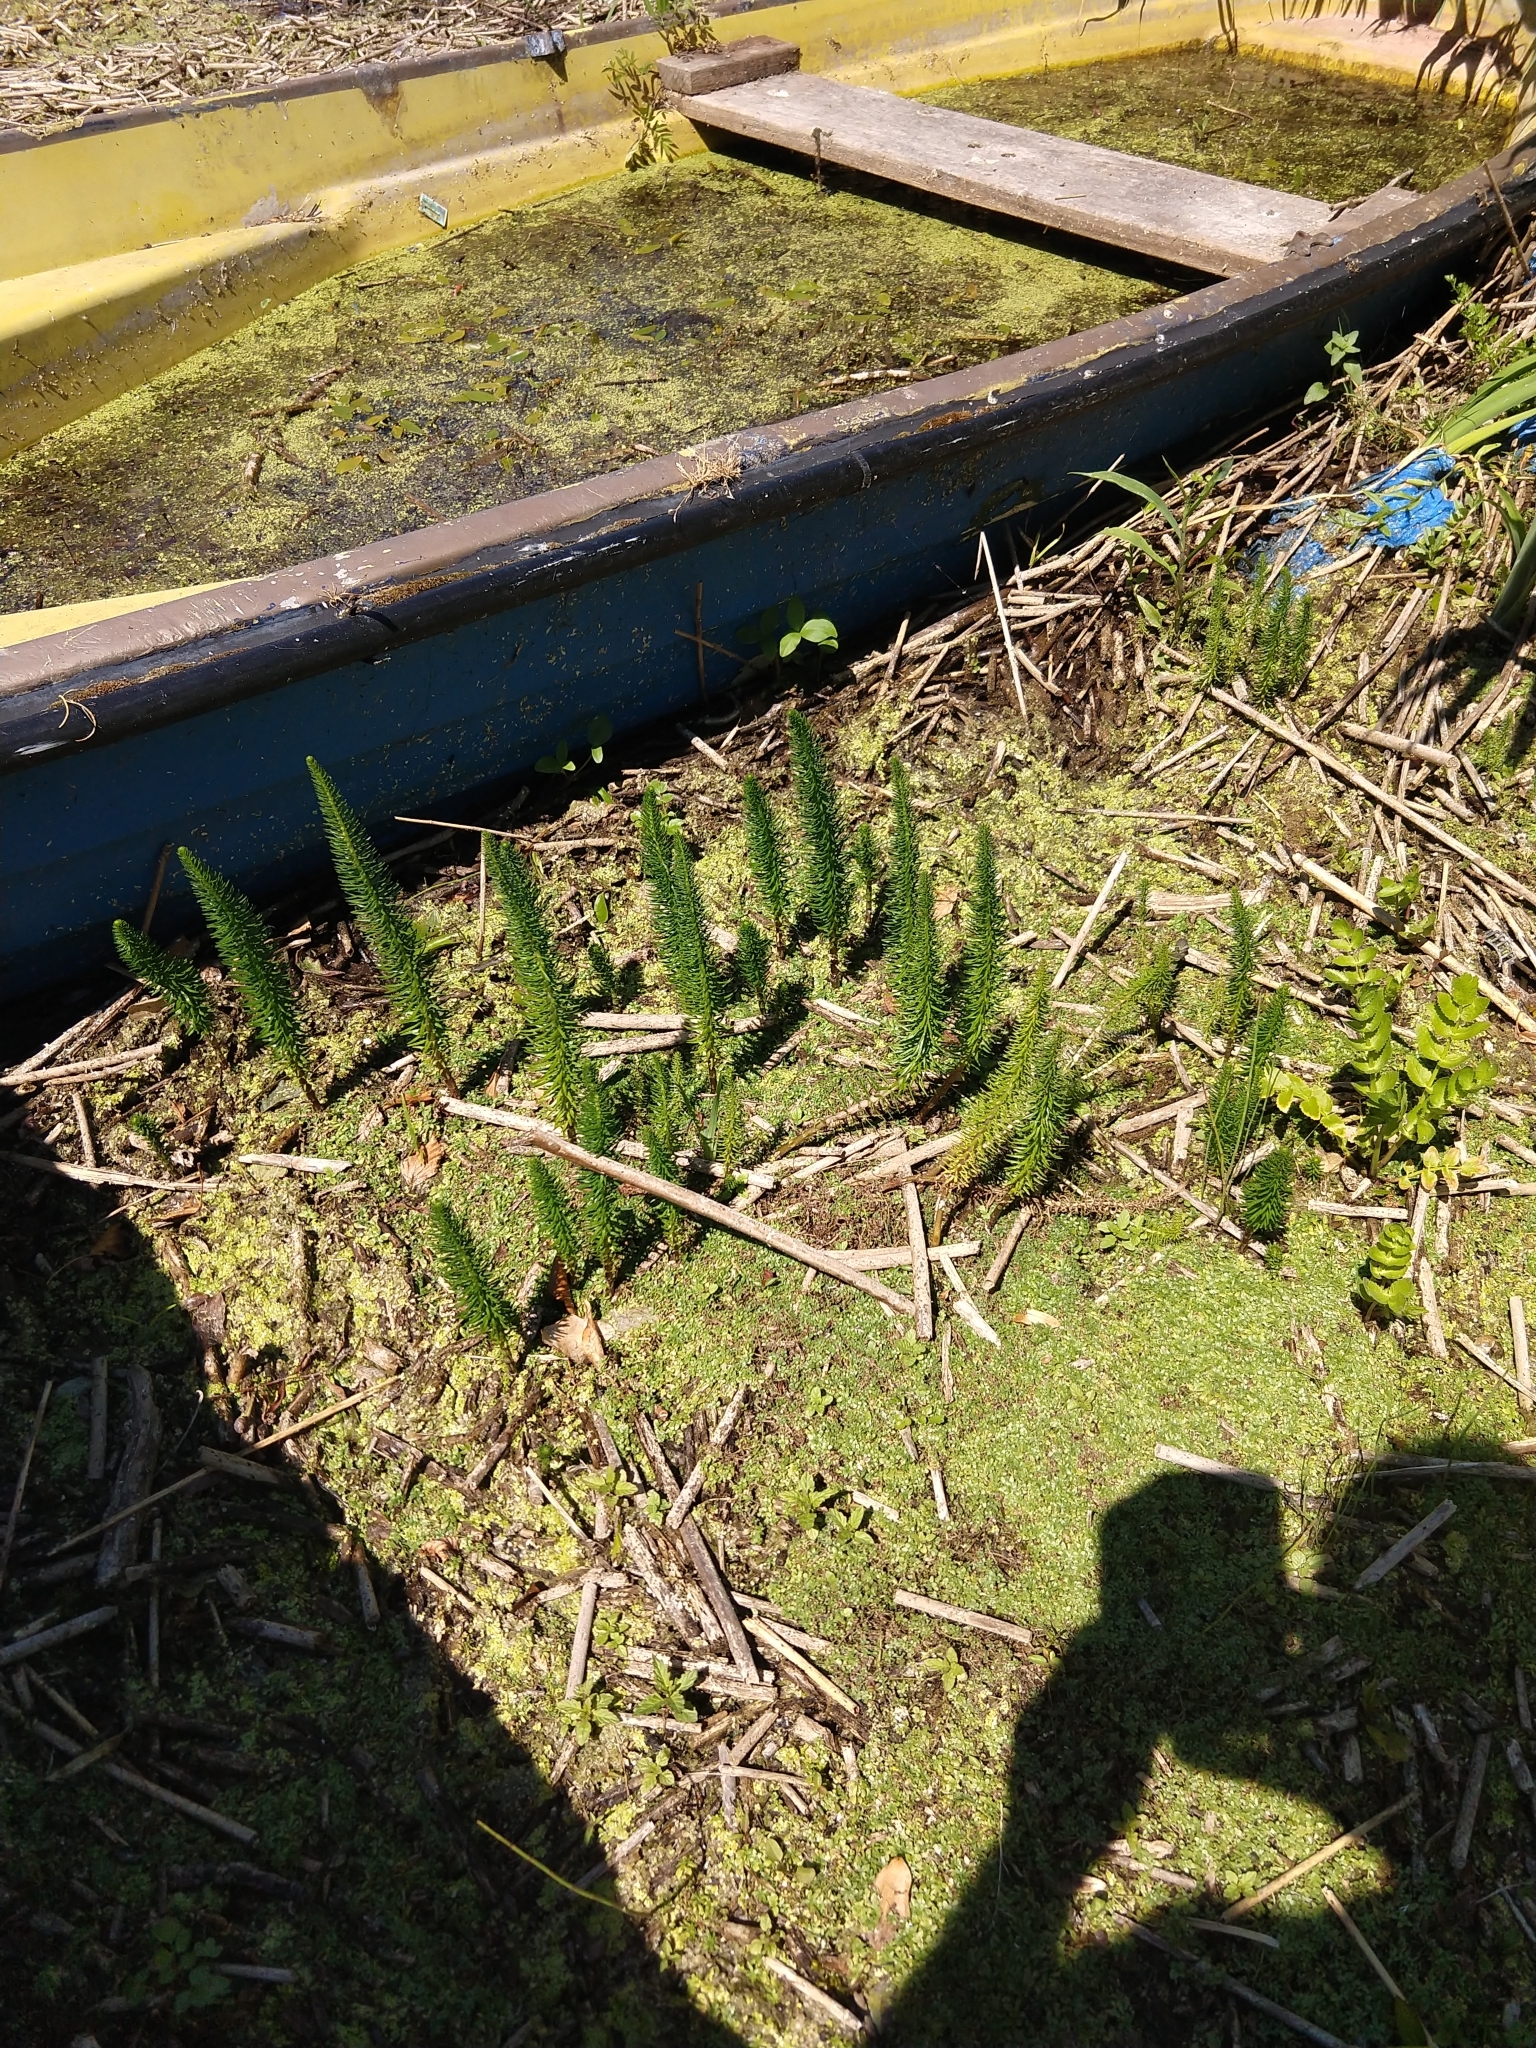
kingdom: Plantae
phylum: Tracheophyta
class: Magnoliopsida
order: Lamiales
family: Plantaginaceae
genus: Hippuris
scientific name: Hippuris vulgaris
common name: Mare's-tail
